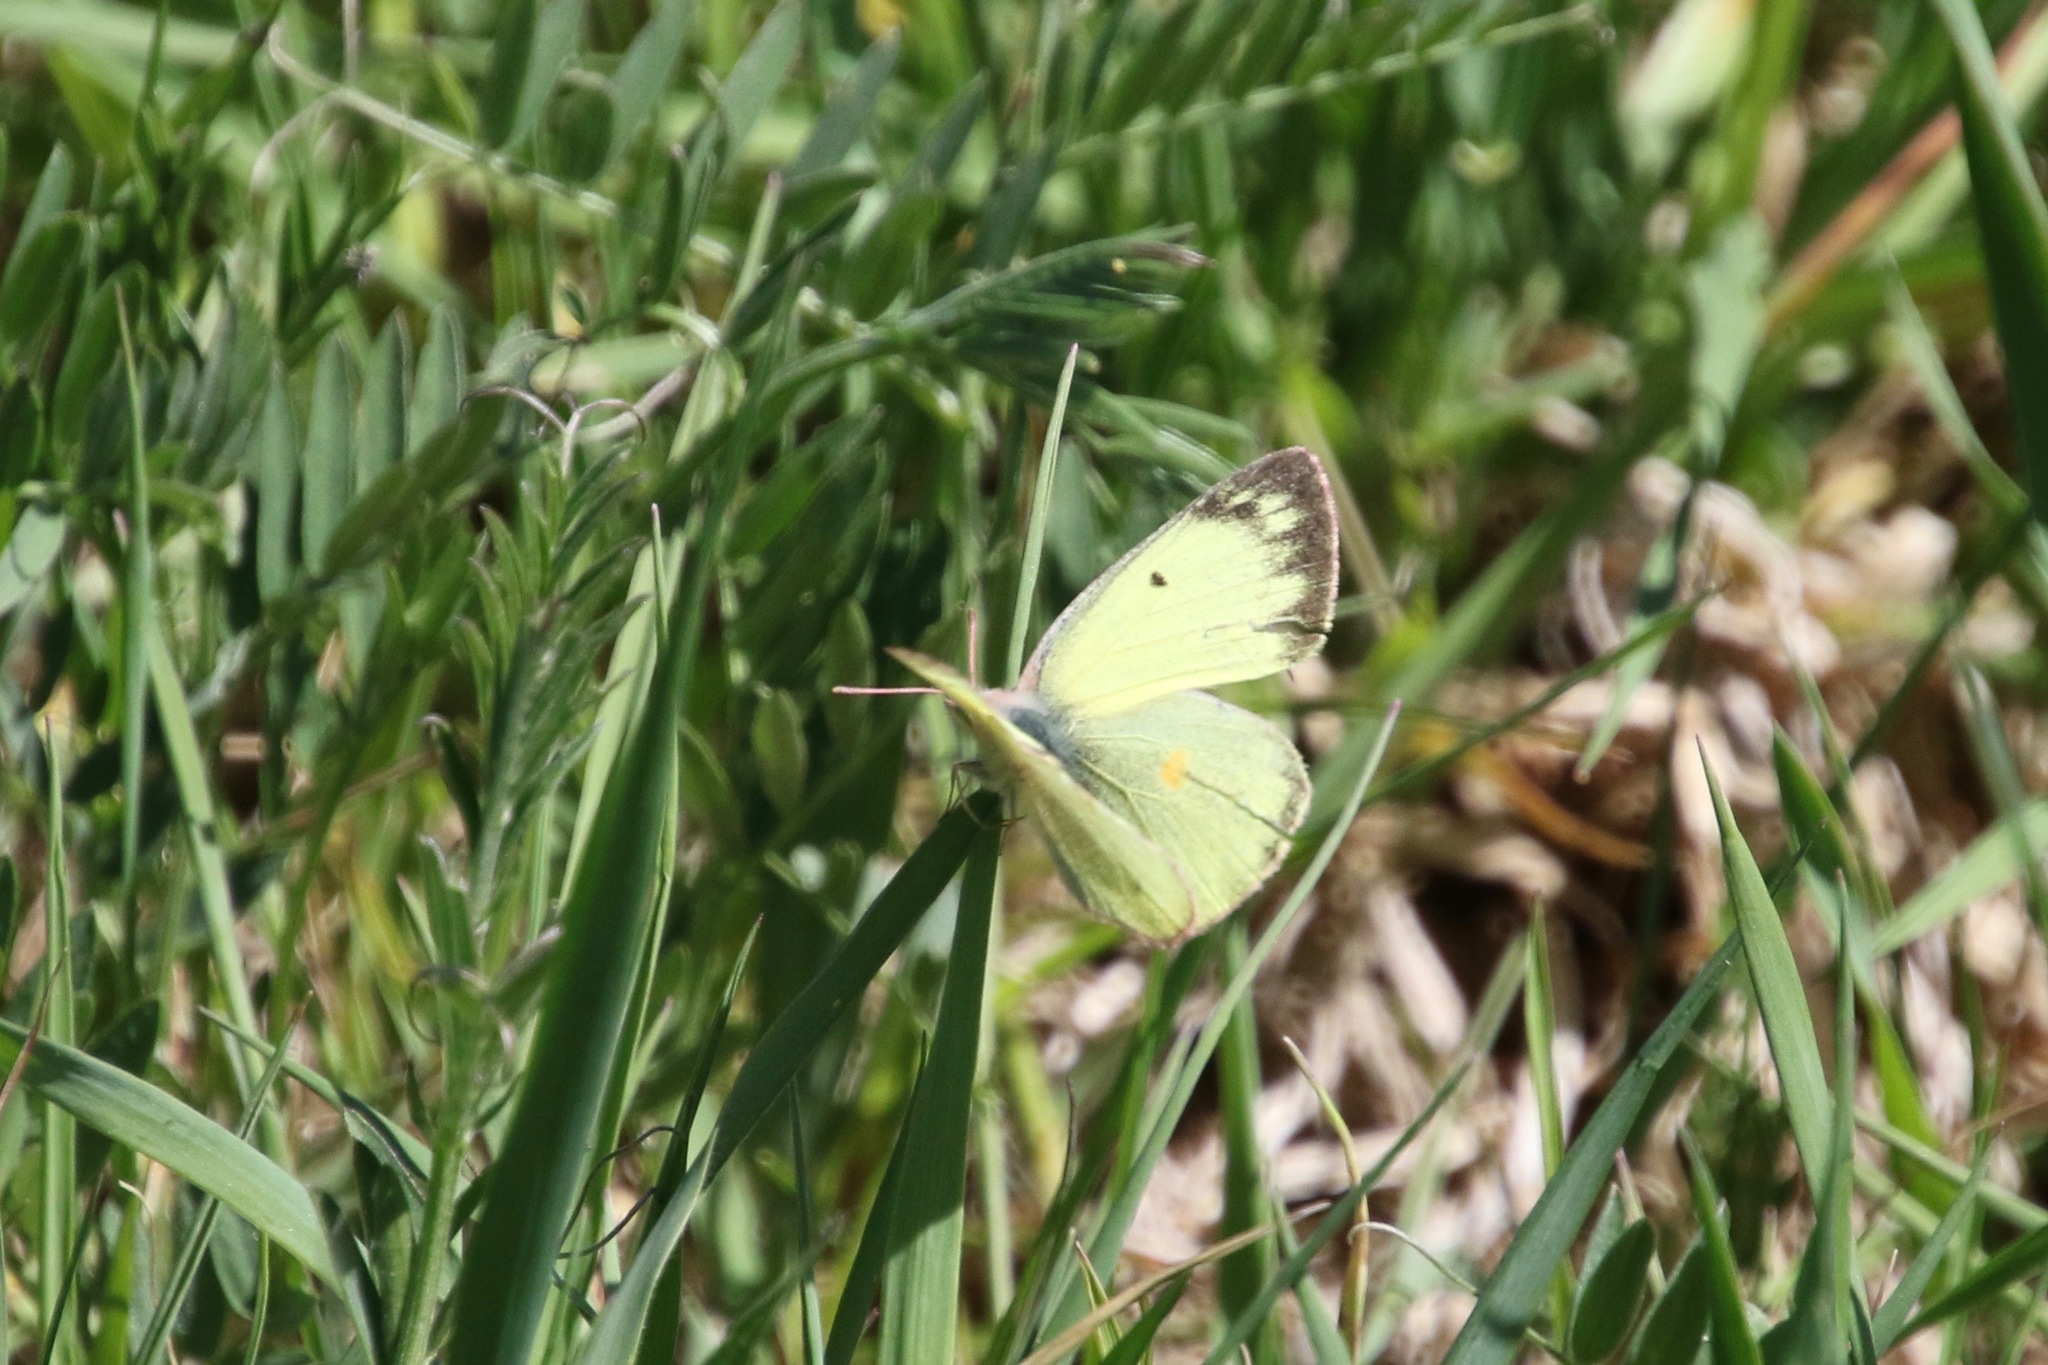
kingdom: Animalia
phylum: Arthropoda
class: Insecta
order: Lepidoptera
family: Pieridae
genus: Colias
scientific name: Colias philodice
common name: Clouded sulphur
